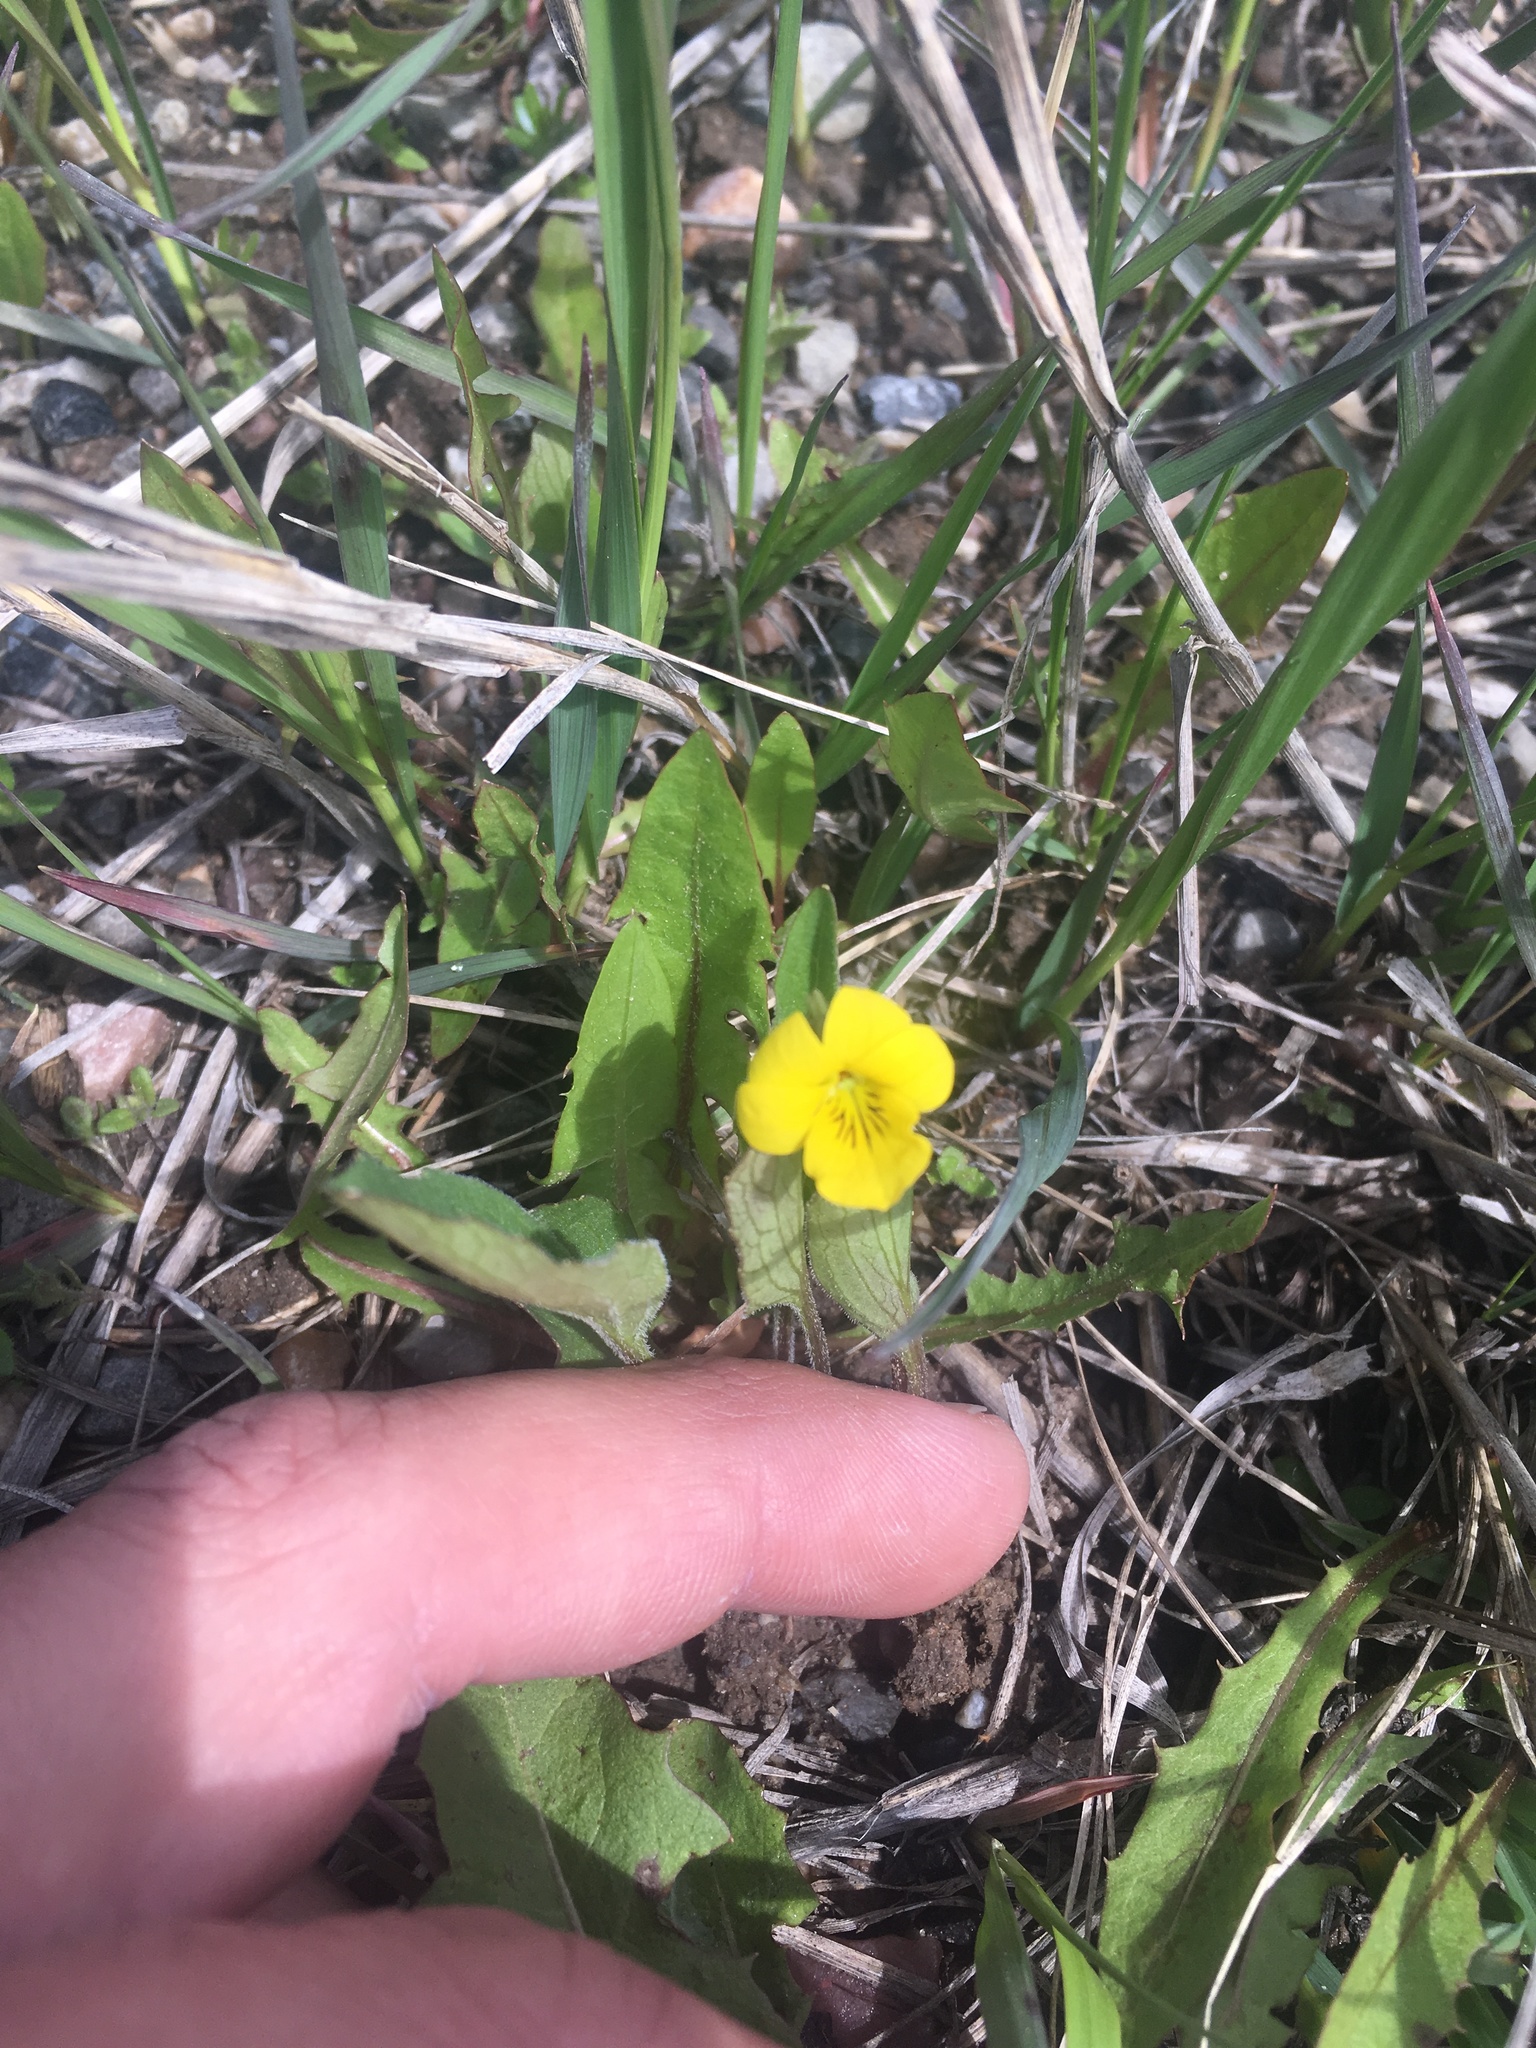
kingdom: Plantae
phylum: Tracheophyta
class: Magnoliopsida
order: Malpighiales
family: Violaceae
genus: Viola
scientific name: Viola nuttallii
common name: Yellow prairie violet
